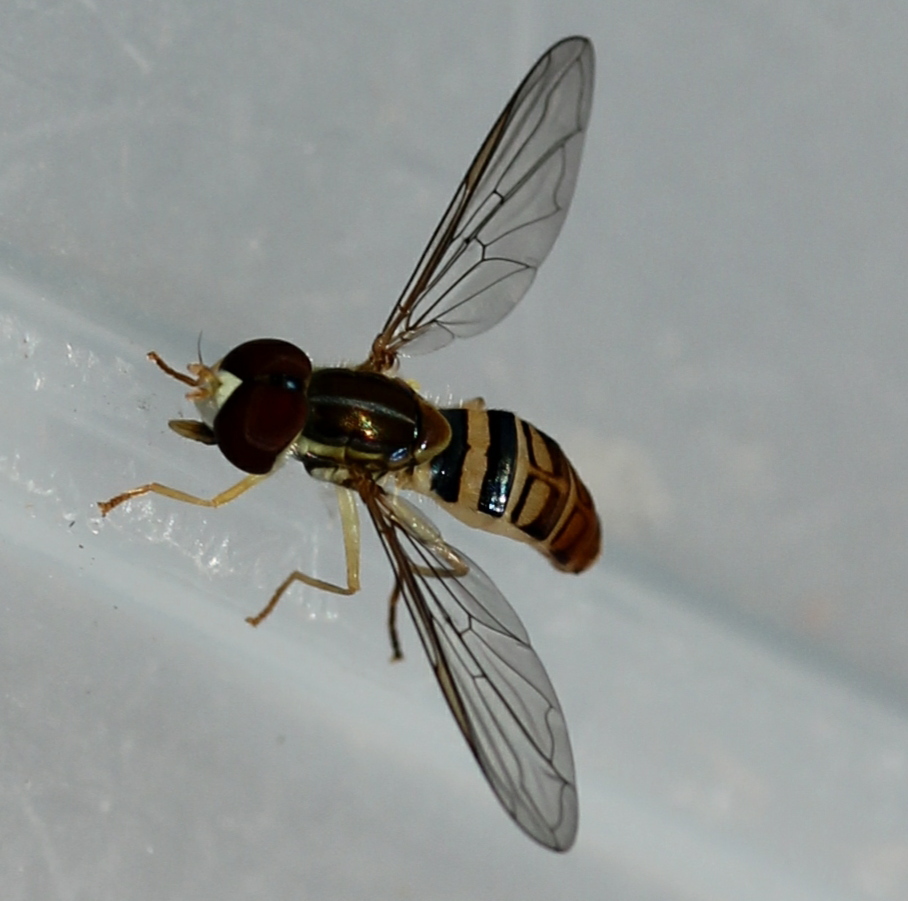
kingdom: Animalia
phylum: Arthropoda
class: Insecta
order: Diptera
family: Syrphidae
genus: Toxomerus
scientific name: Toxomerus politus
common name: Maize calligrapher
